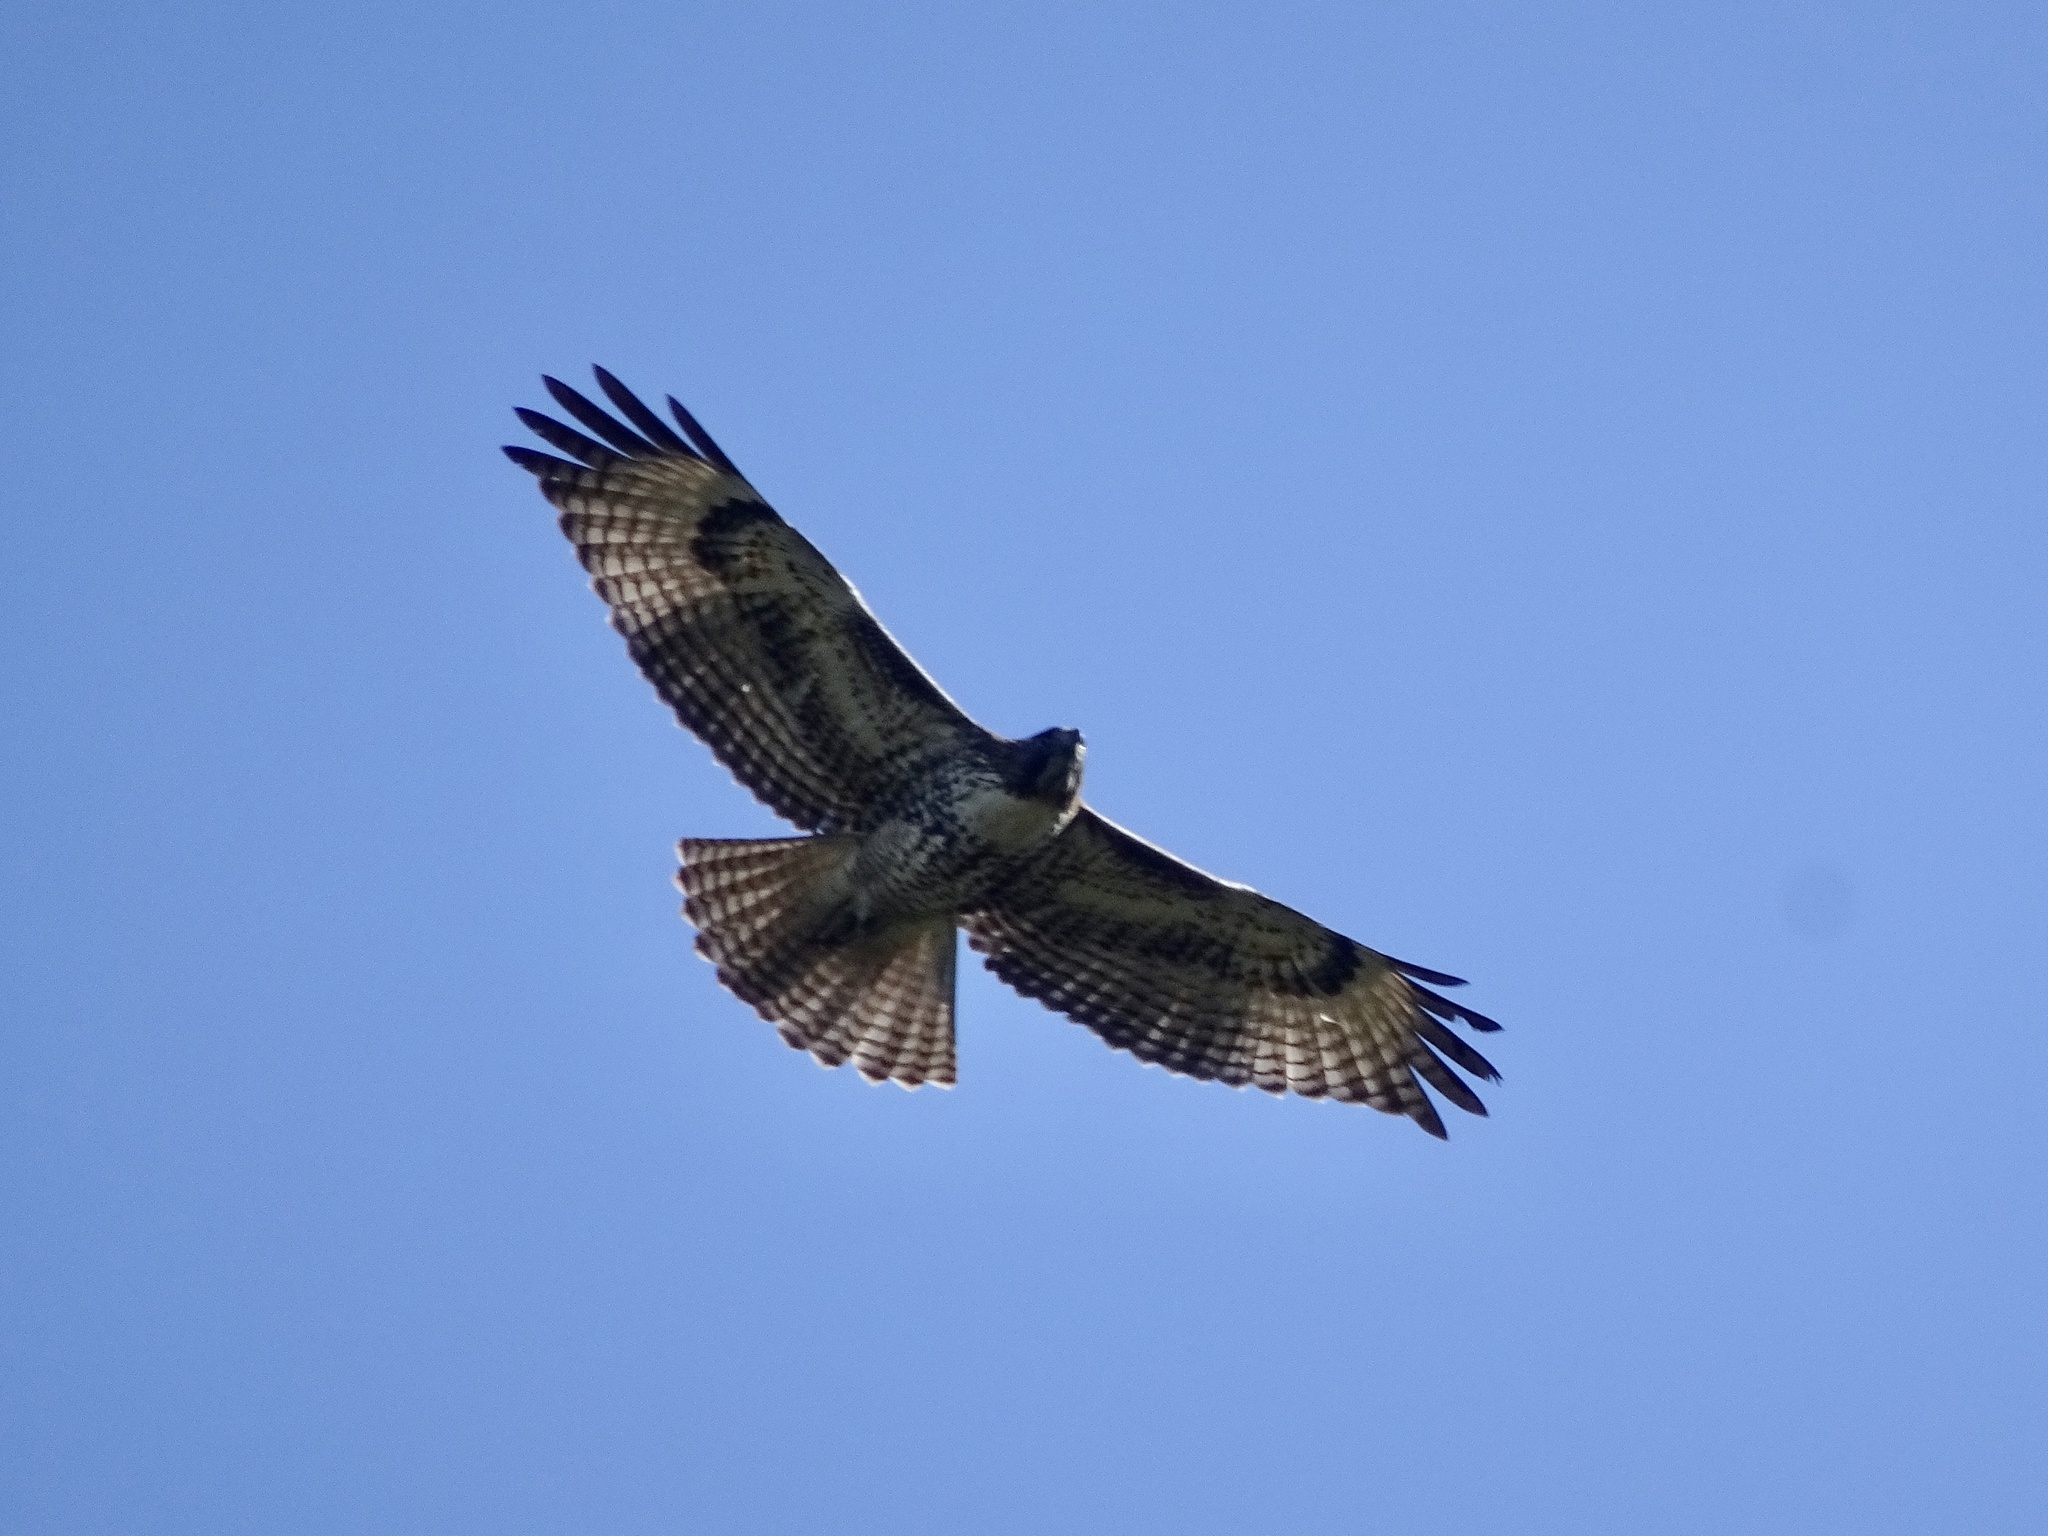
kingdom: Animalia
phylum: Chordata
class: Aves
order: Accipitriformes
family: Accipitridae
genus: Buteo
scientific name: Buteo jamaicensis
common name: Red-tailed hawk
